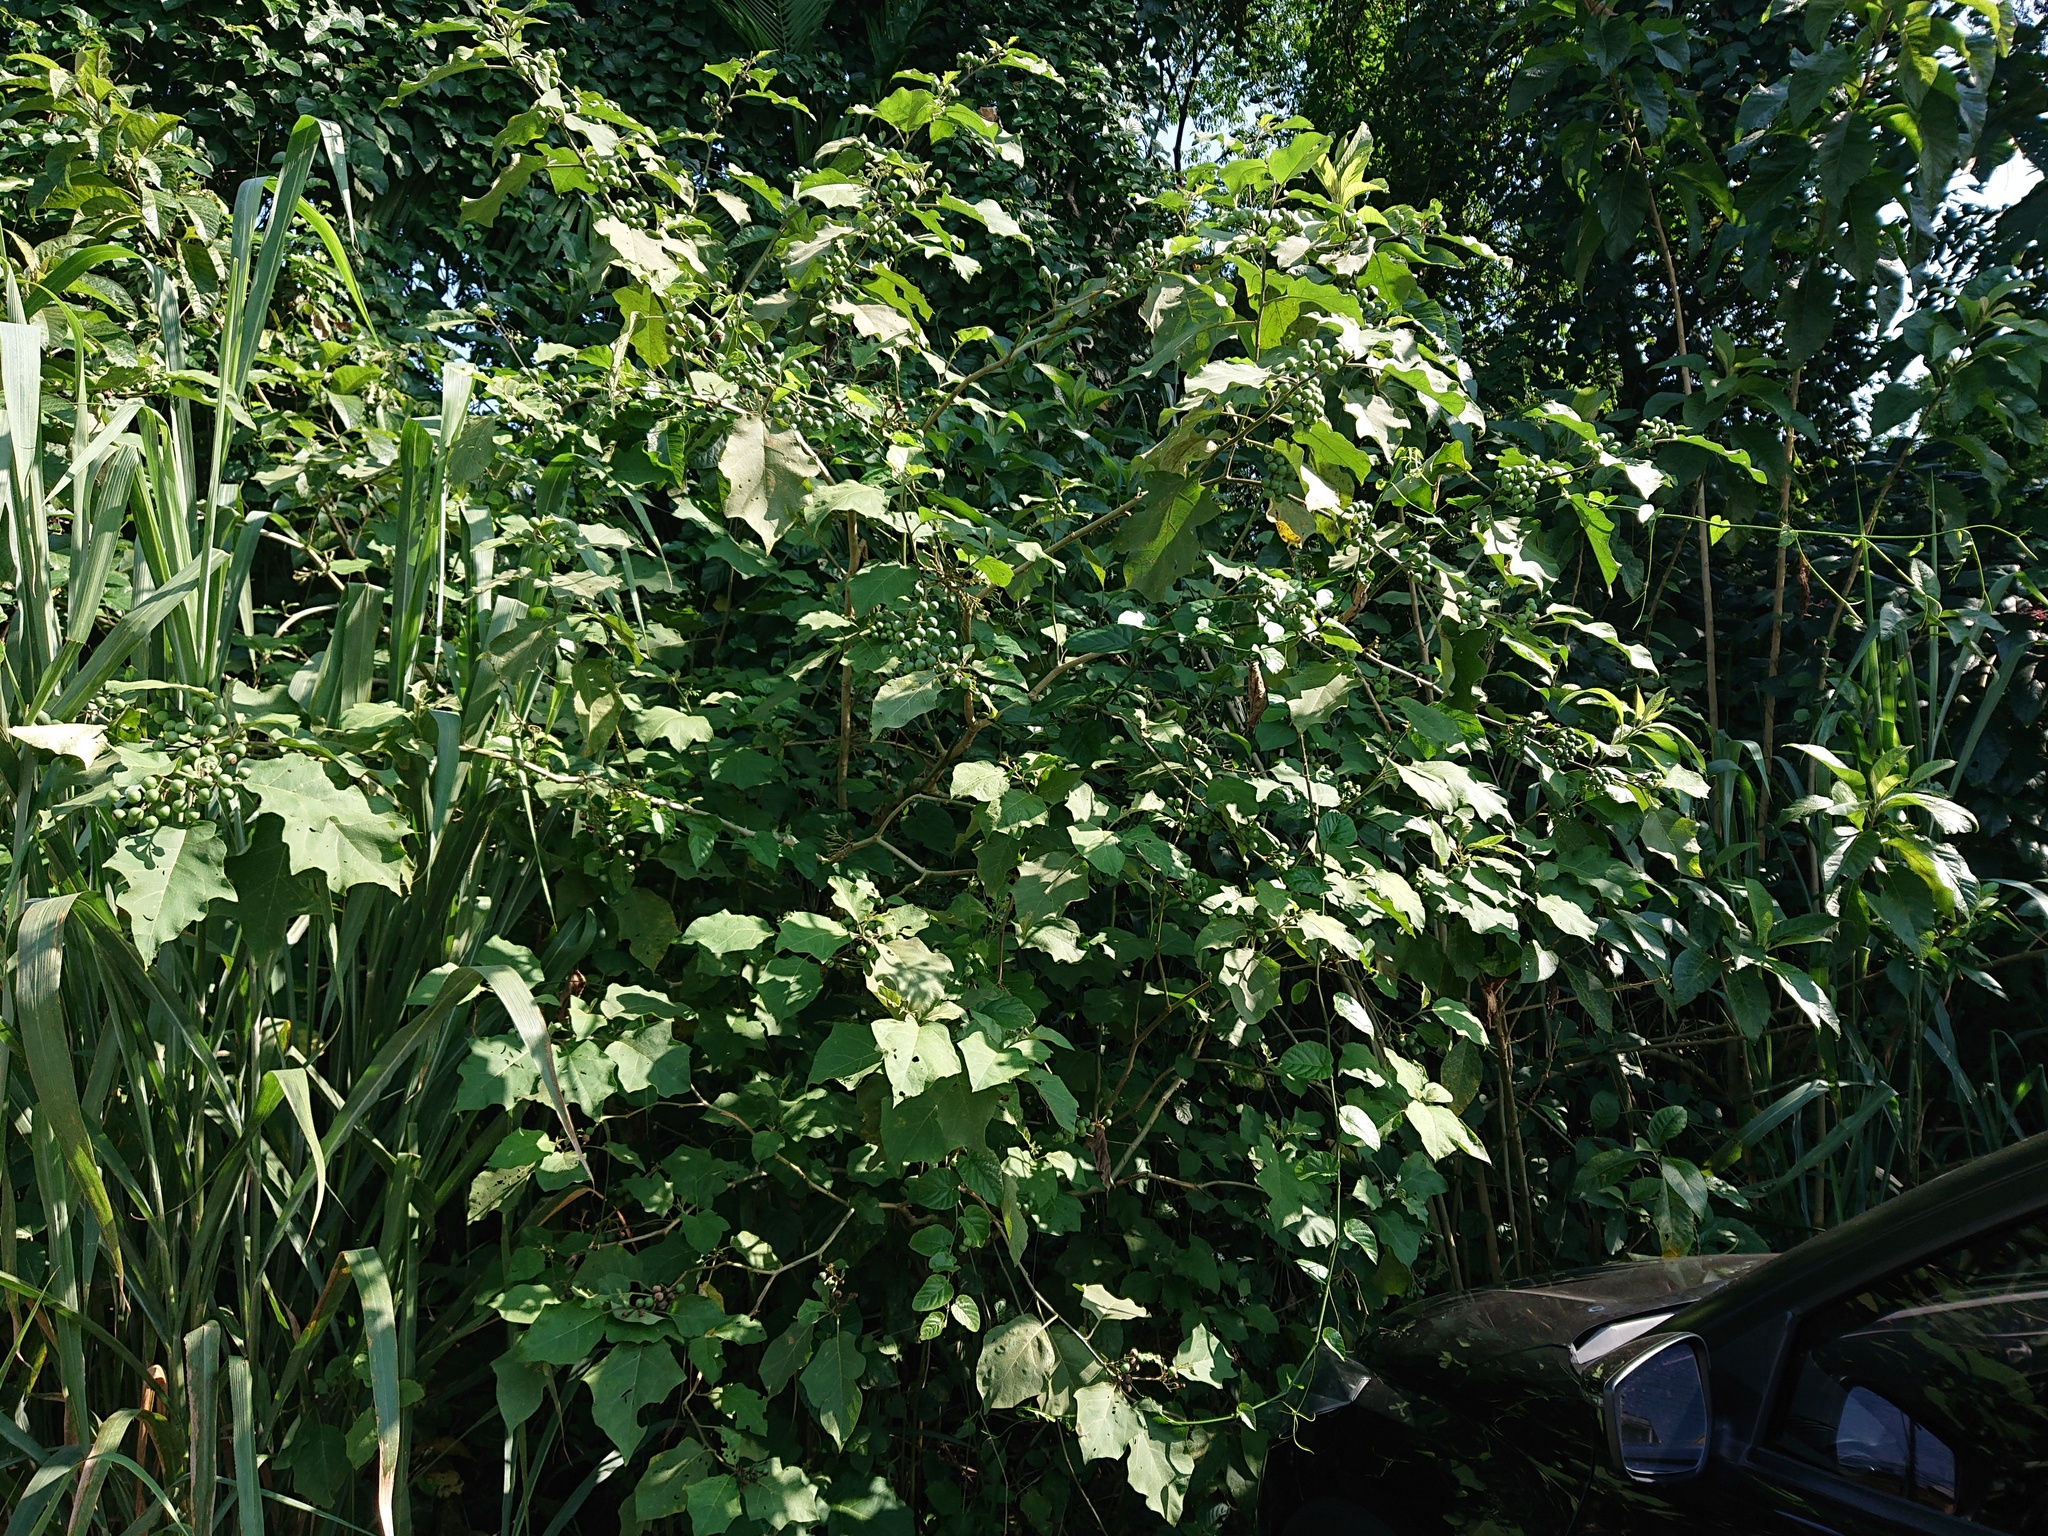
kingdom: Plantae
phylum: Tracheophyta
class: Magnoliopsida
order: Solanales
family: Solanaceae
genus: Solanum
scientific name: Solanum torvum
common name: Turkey berry
